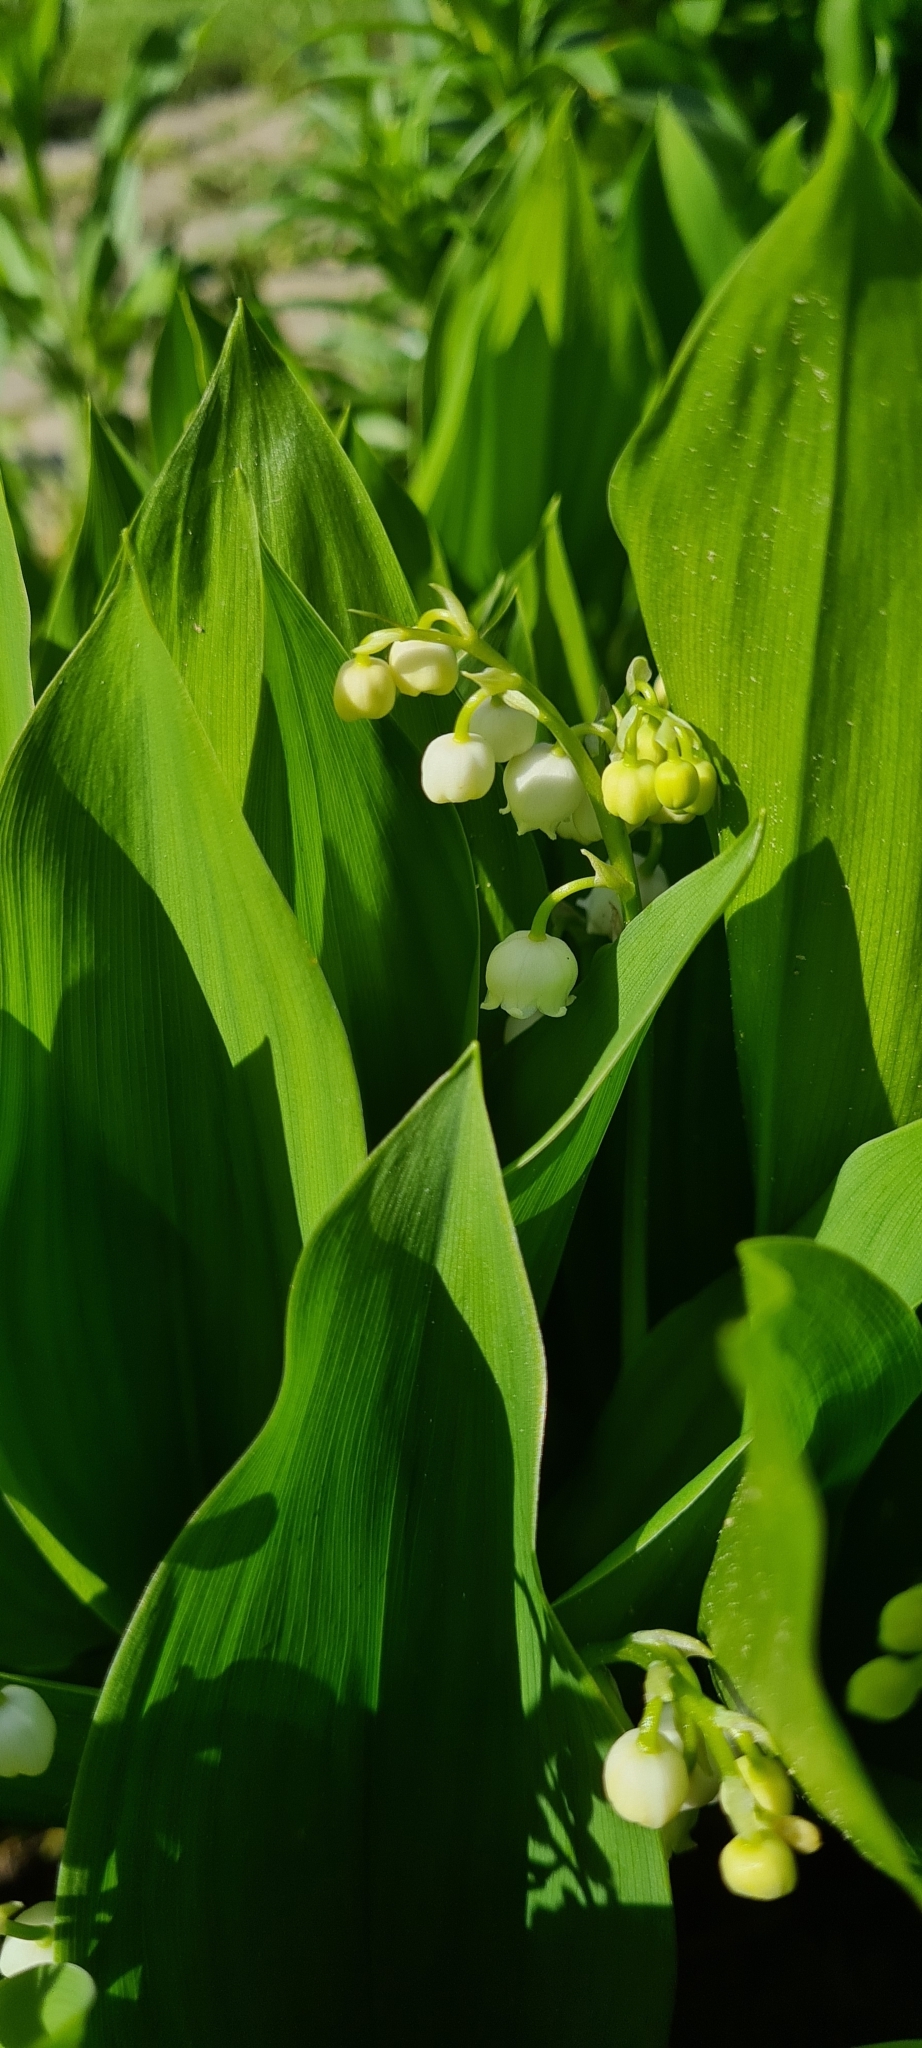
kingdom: Plantae
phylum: Tracheophyta
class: Liliopsida
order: Asparagales
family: Asparagaceae
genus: Convallaria
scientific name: Convallaria majalis
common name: Lily-of-the-valley
